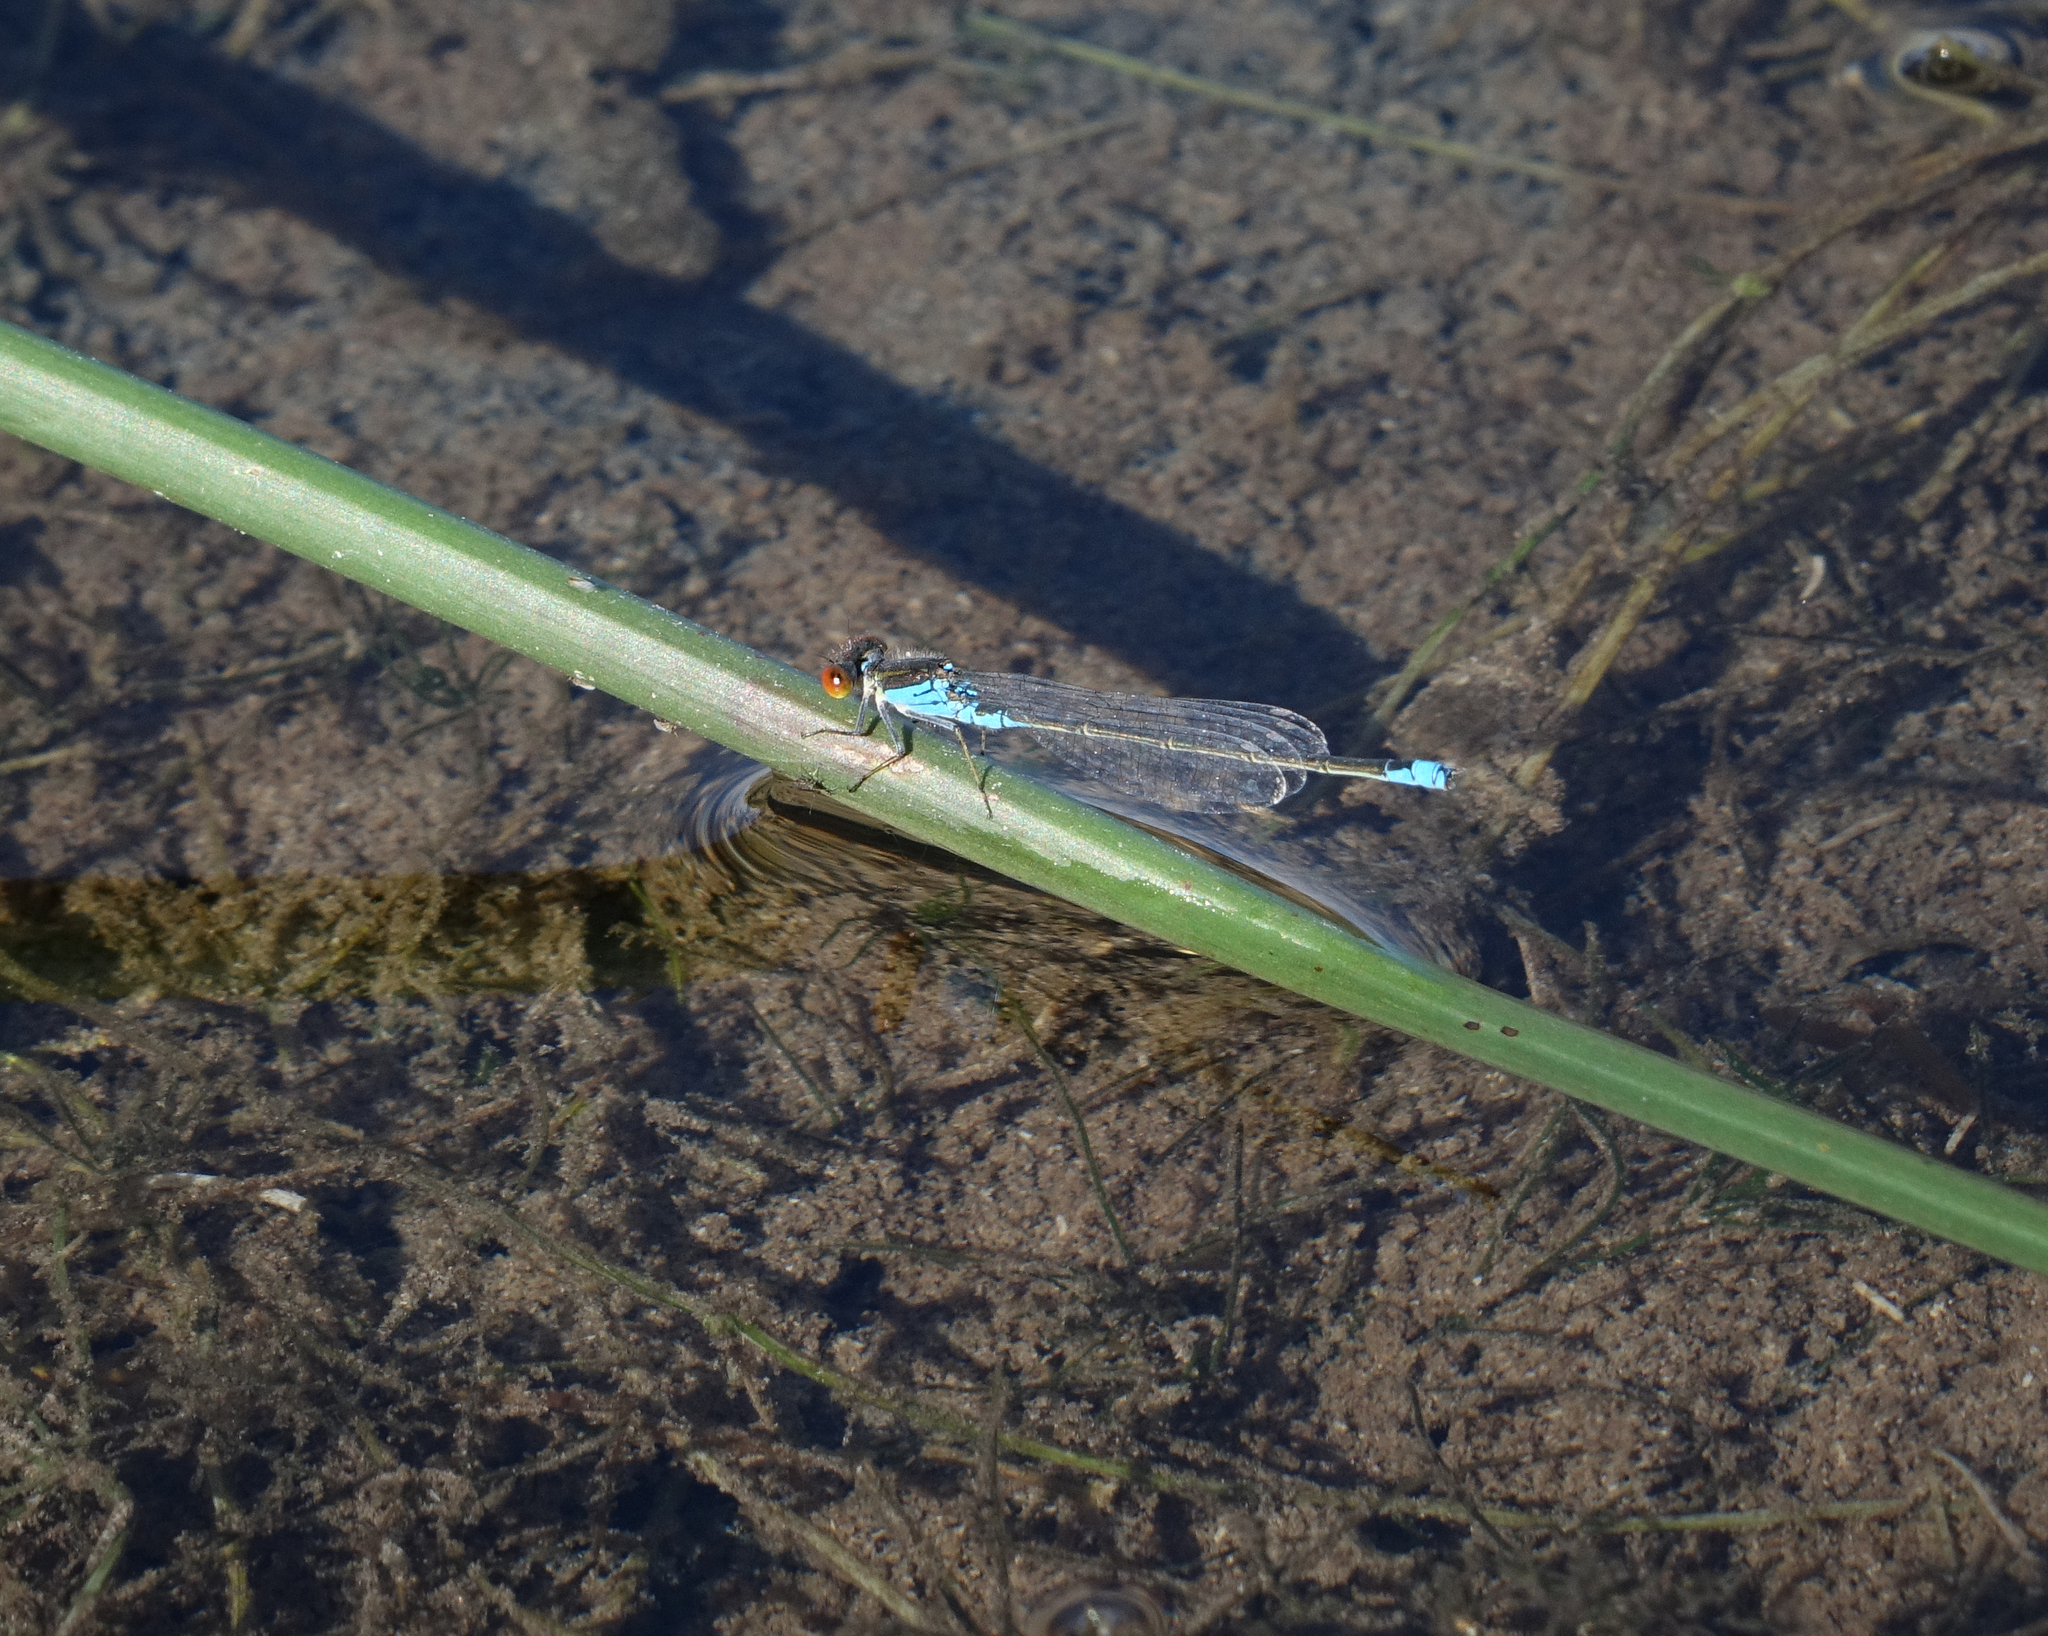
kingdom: Animalia
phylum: Arthropoda
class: Insecta
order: Odonata
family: Coenagrionidae
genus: Erythromma
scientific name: Erythromma viridulum
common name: Small red-eyed damselfly
